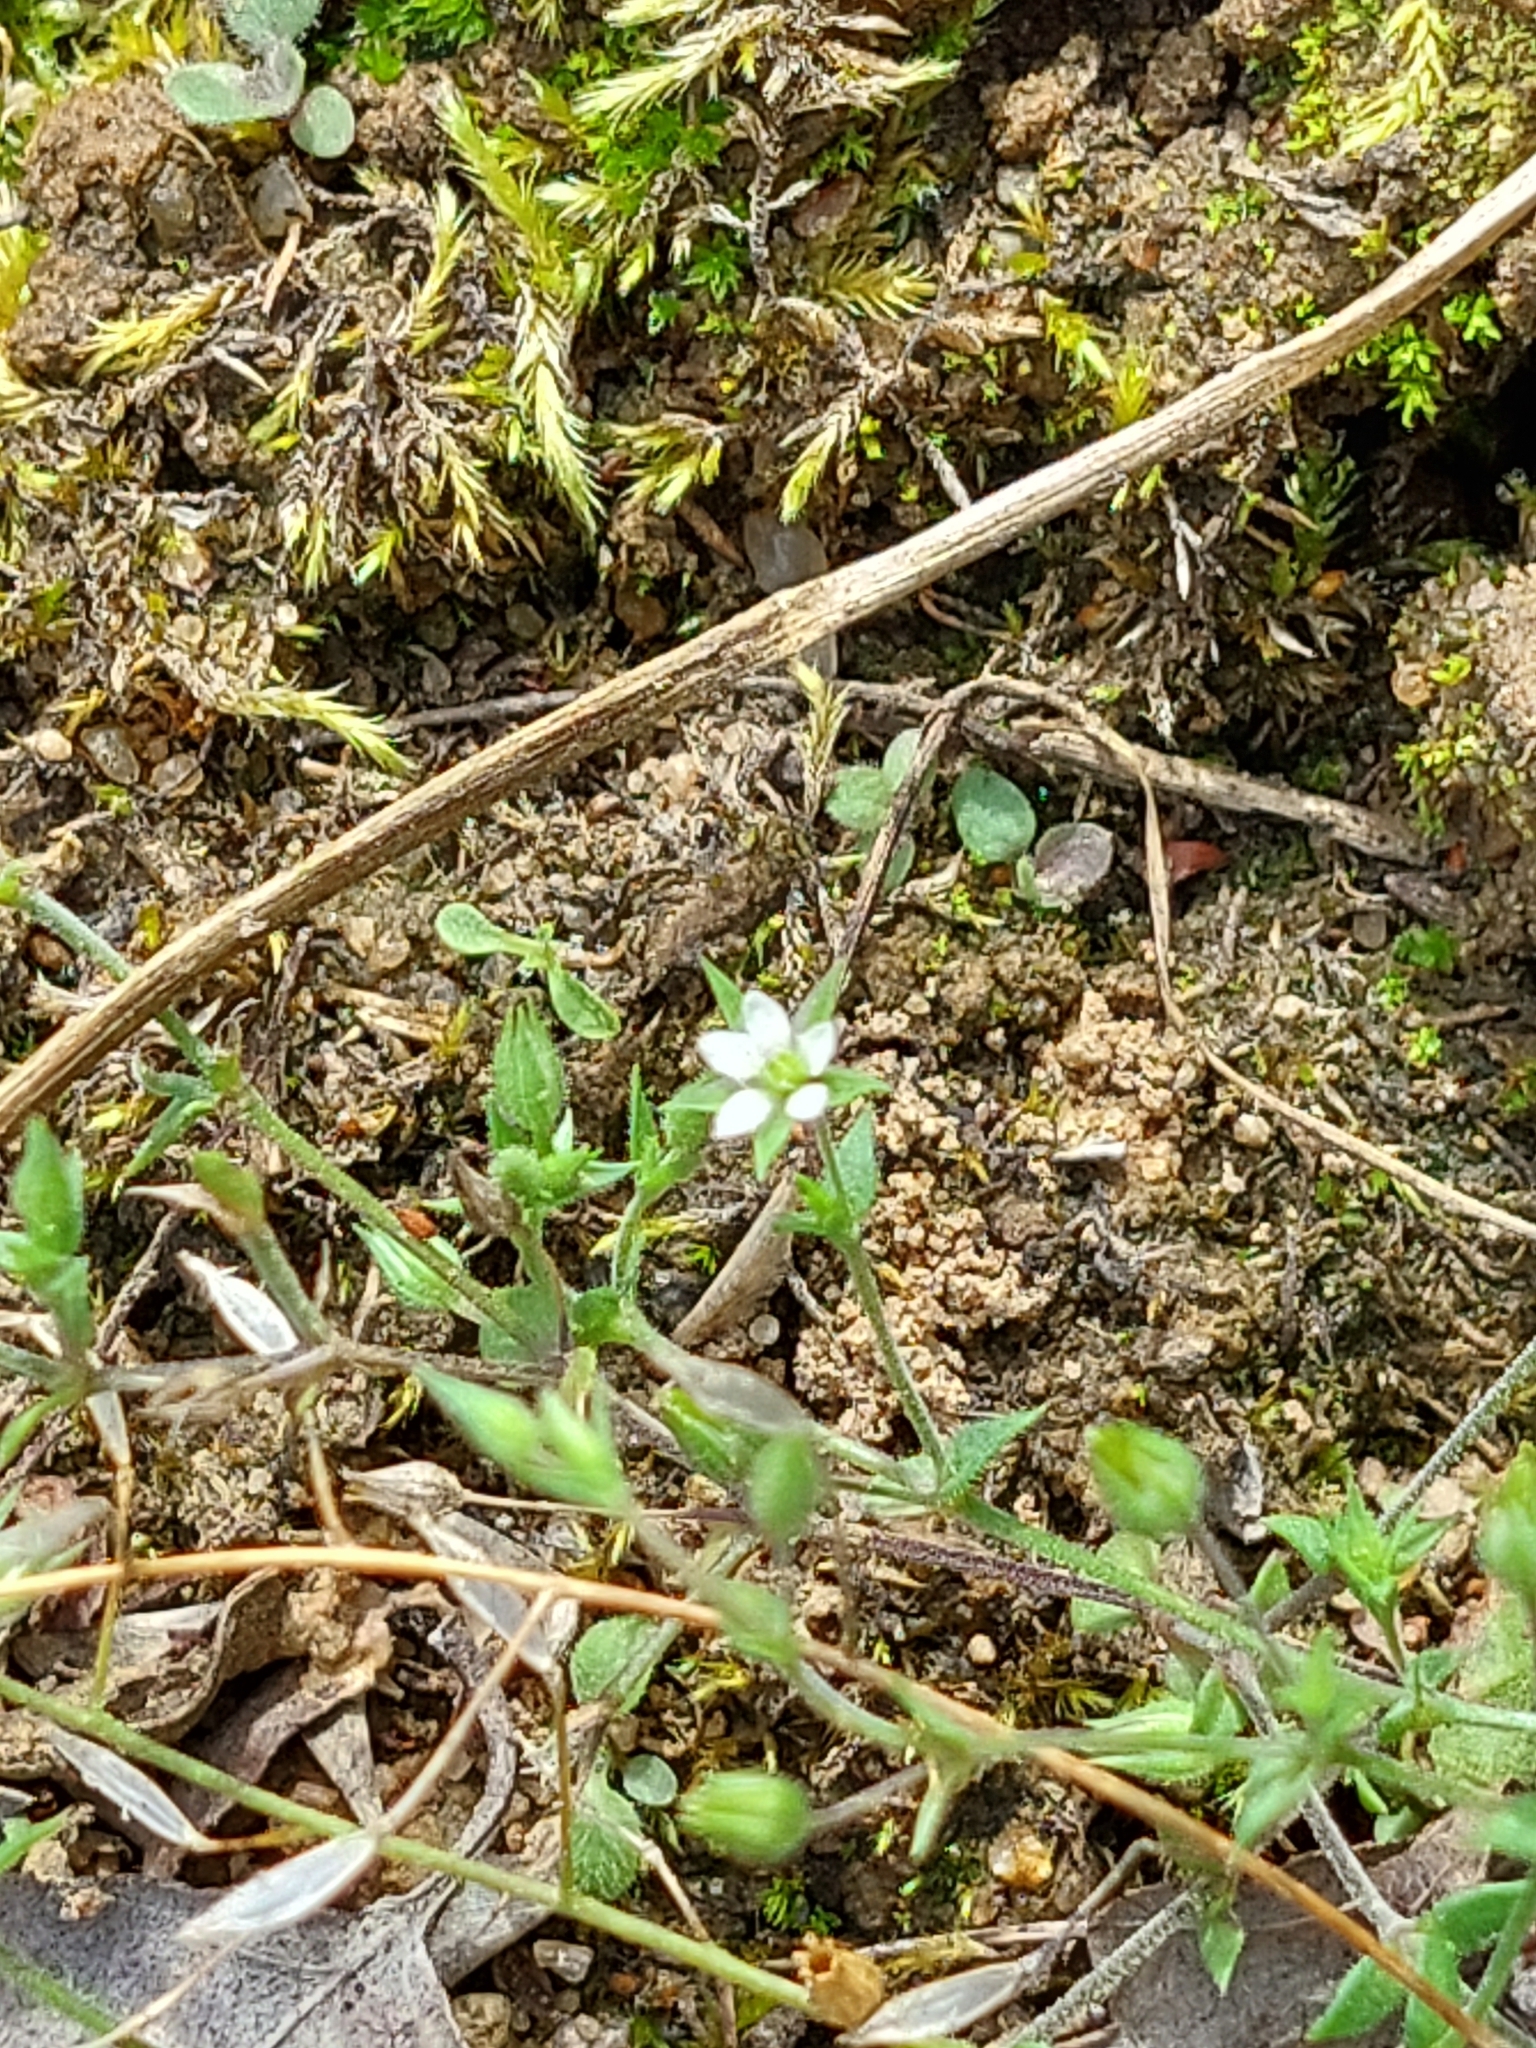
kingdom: Plantae
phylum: Tracheophyta
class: Magnoliopsida
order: Caryophyllales
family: Caryophyllaceae
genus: Arenaria
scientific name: Arenaria serpyllifolia
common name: Thyme-leaved sandwort
